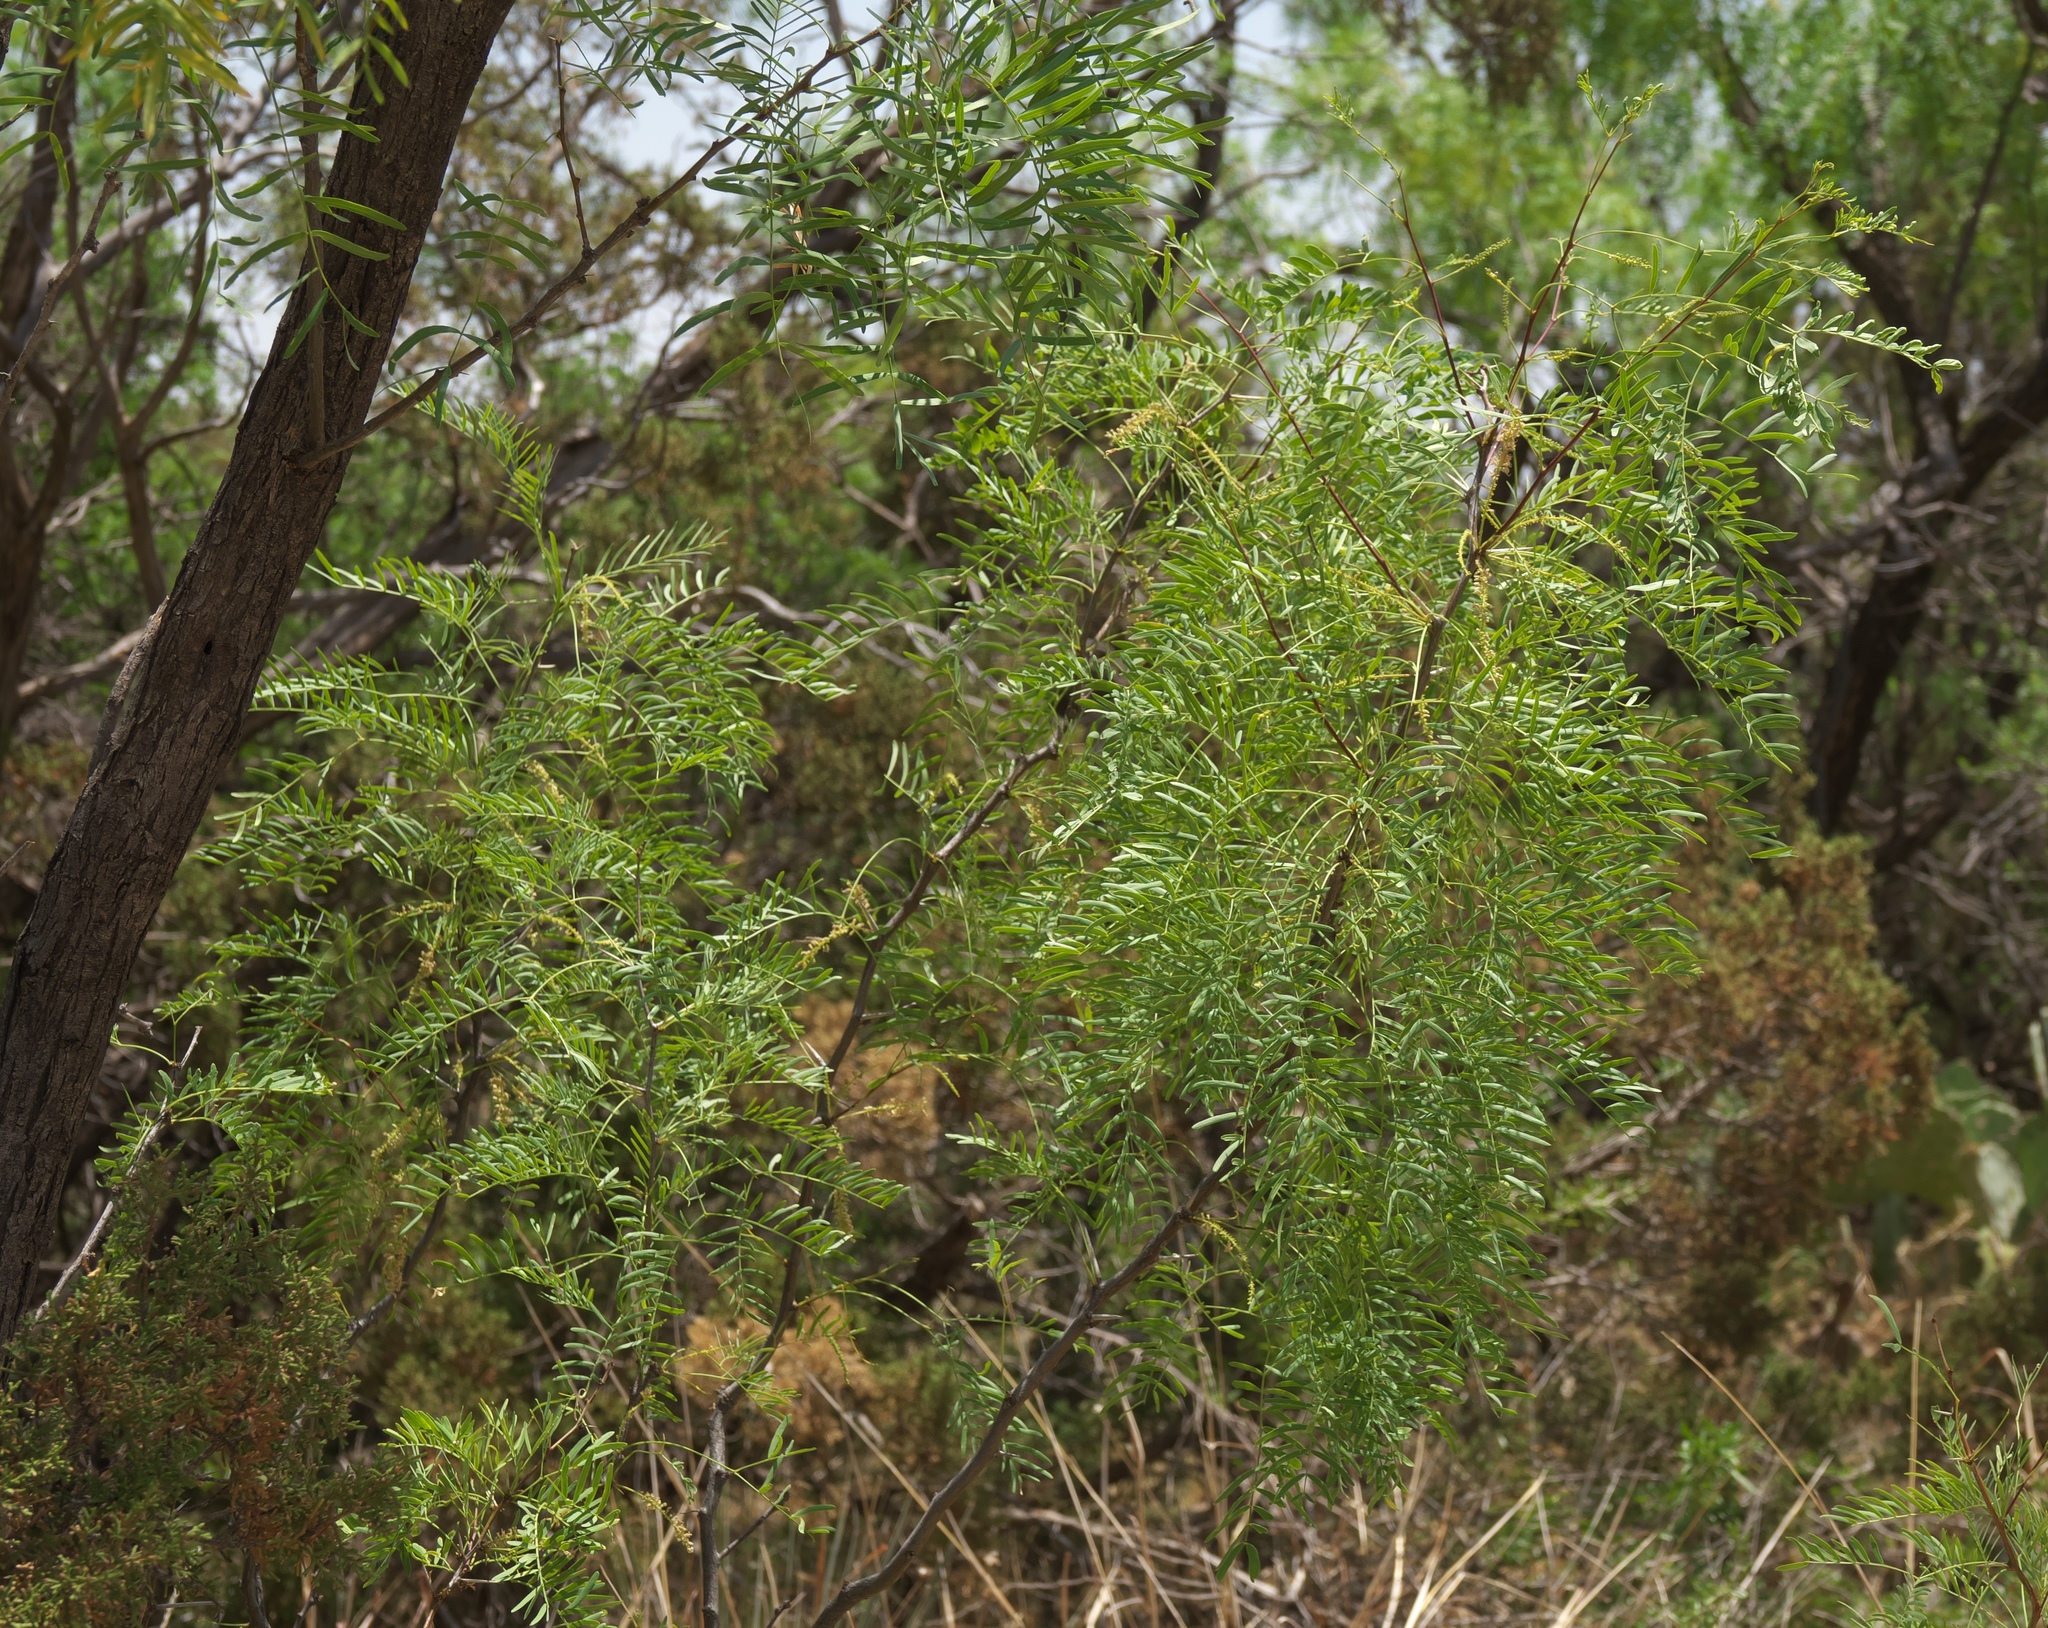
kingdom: Plantae
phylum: Tracheophyta
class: Magnoliopsida
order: Fabales
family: Fabaceae
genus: Prosopis
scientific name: Prosopis glandulosa
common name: Honey mesquite
